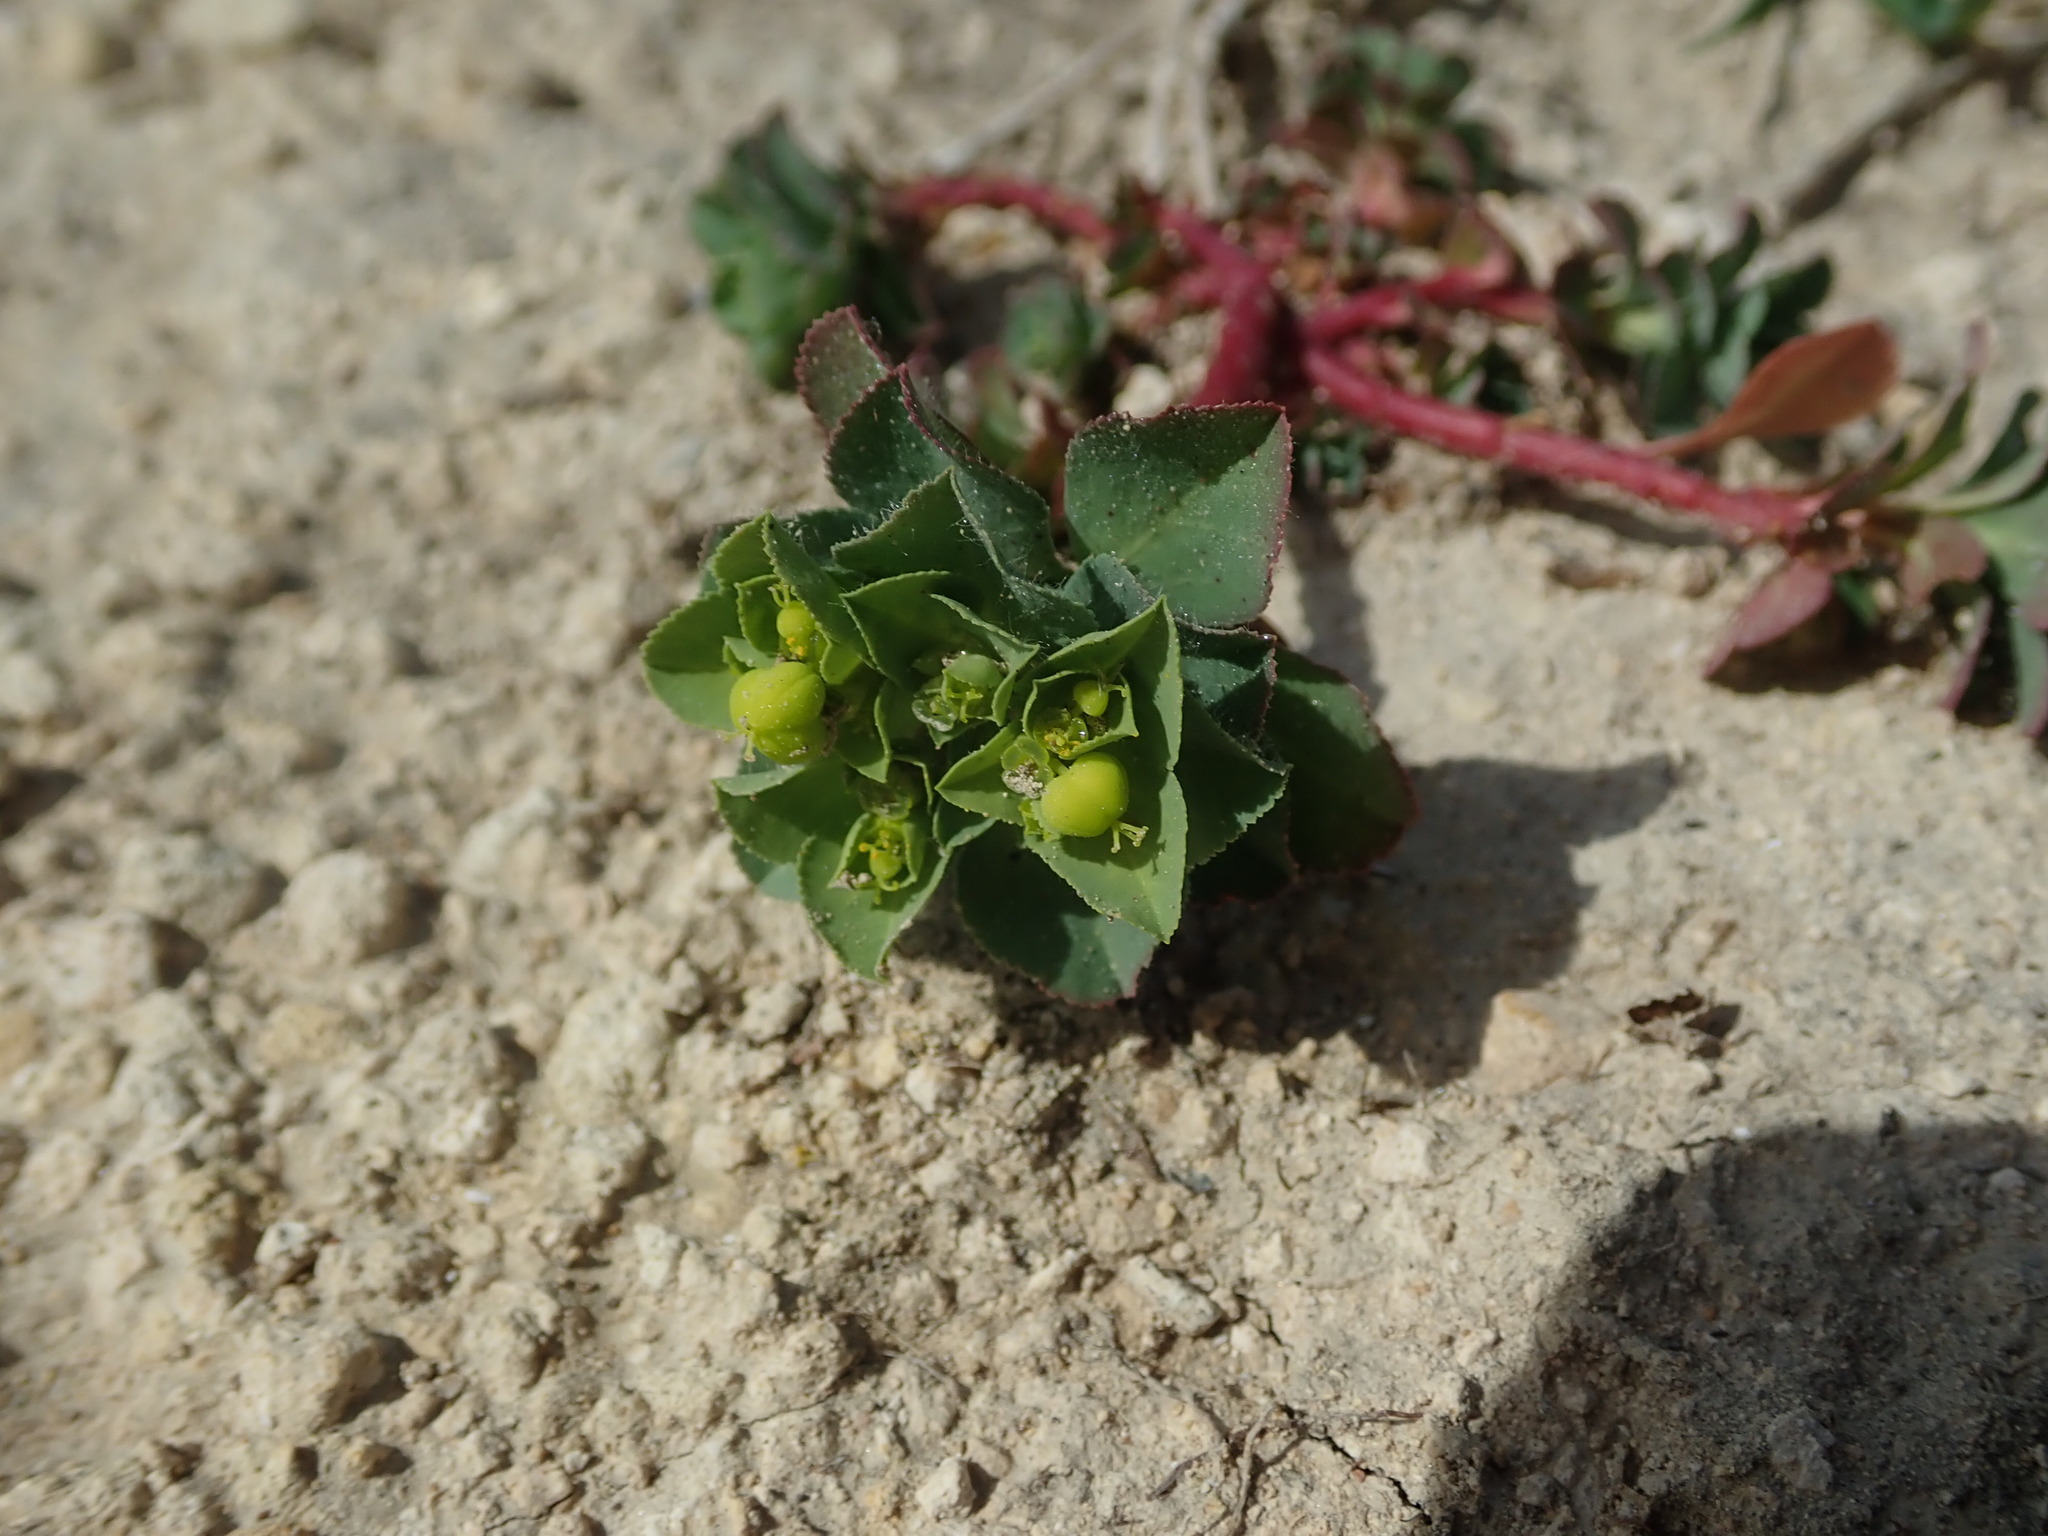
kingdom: Plantae
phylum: Tracheophyta
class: Magnoliopsida
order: Malpighiales
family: Euphorbiaceae
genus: Euphorbia
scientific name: Euphorbia helioscopia
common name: Sun spurge
